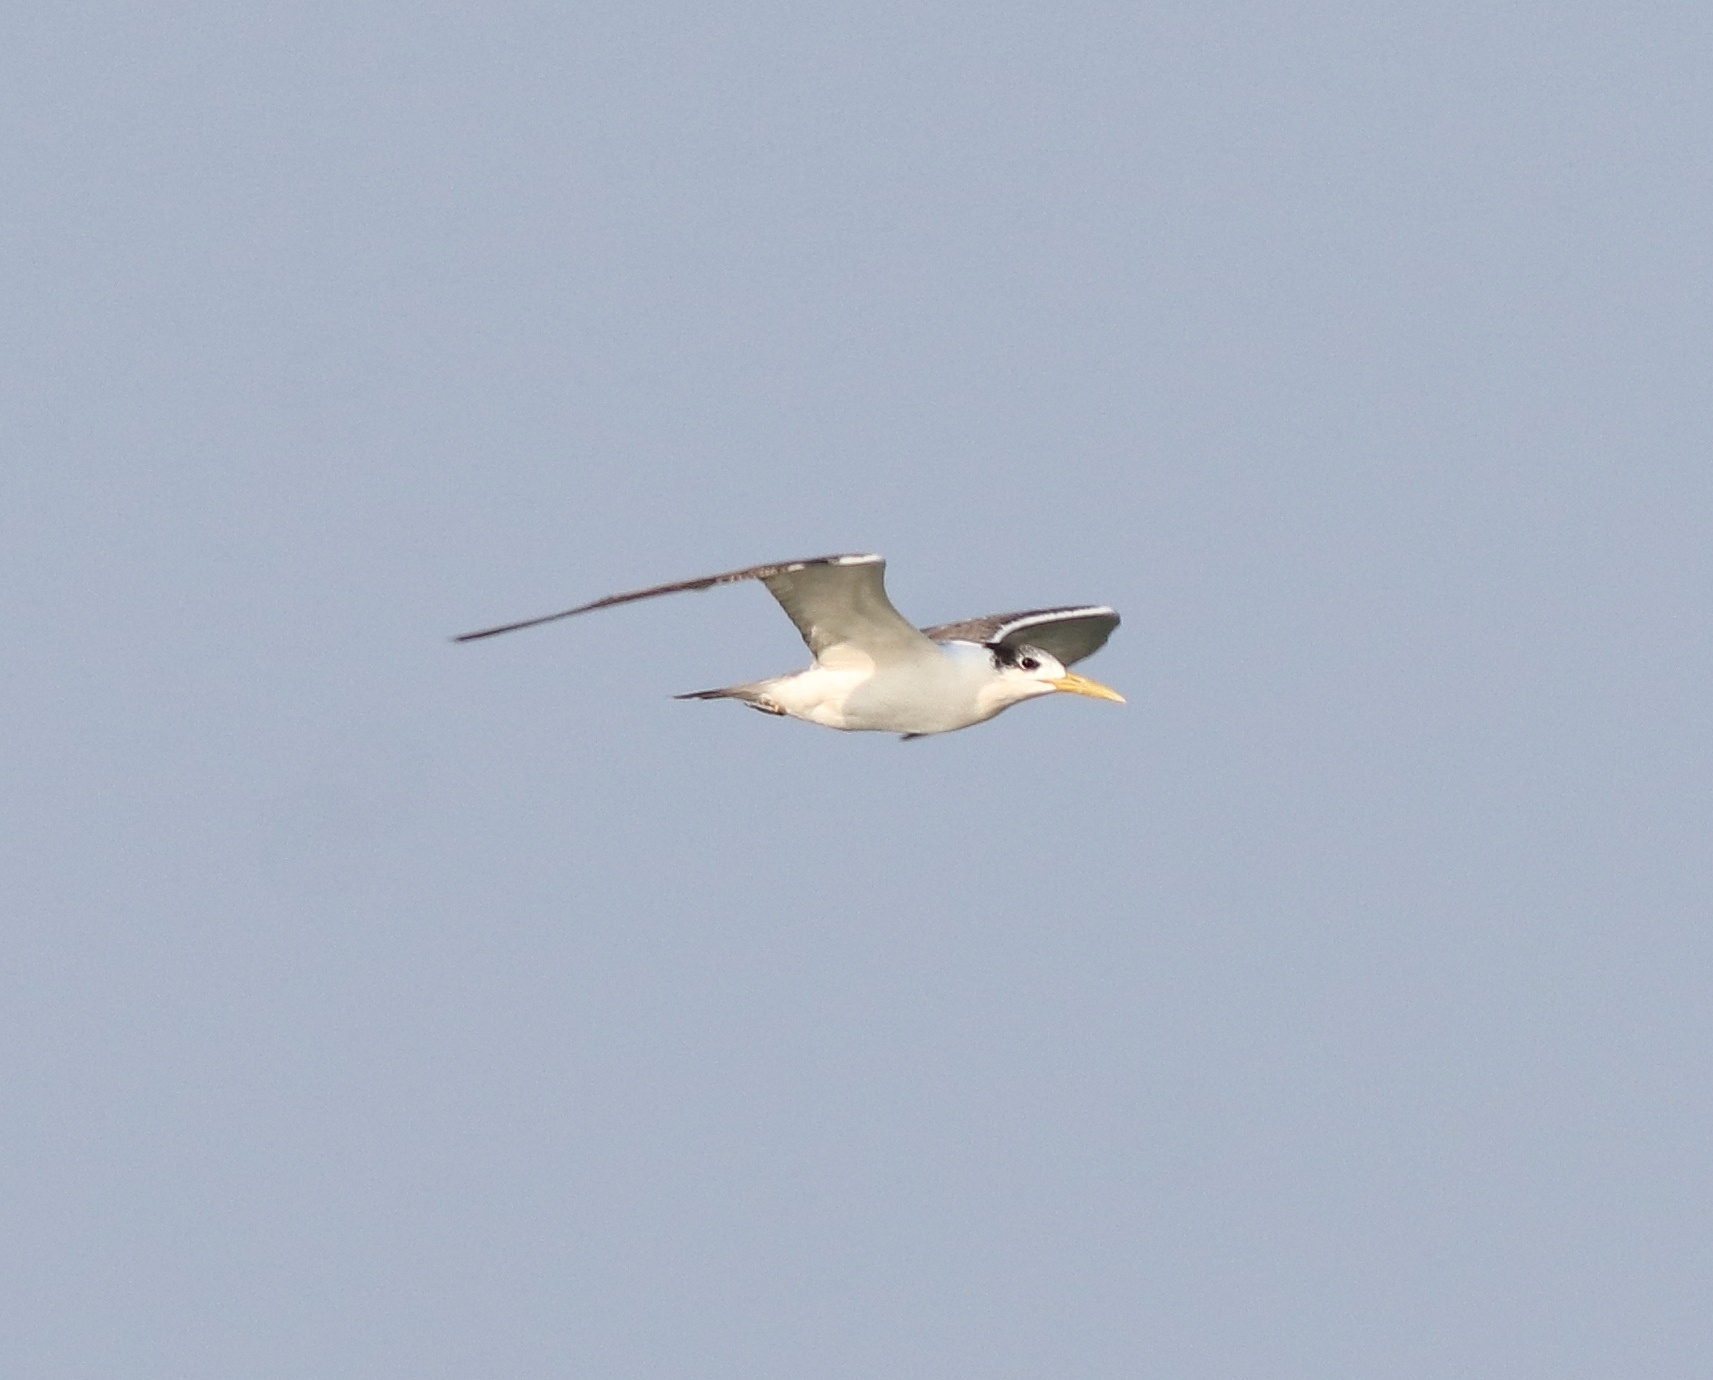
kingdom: Animalia
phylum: Chordata
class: Aves
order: Charadriiformes
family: Laridae
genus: Thalasseus
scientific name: Thalasseus bergii
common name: Greater crested tern
